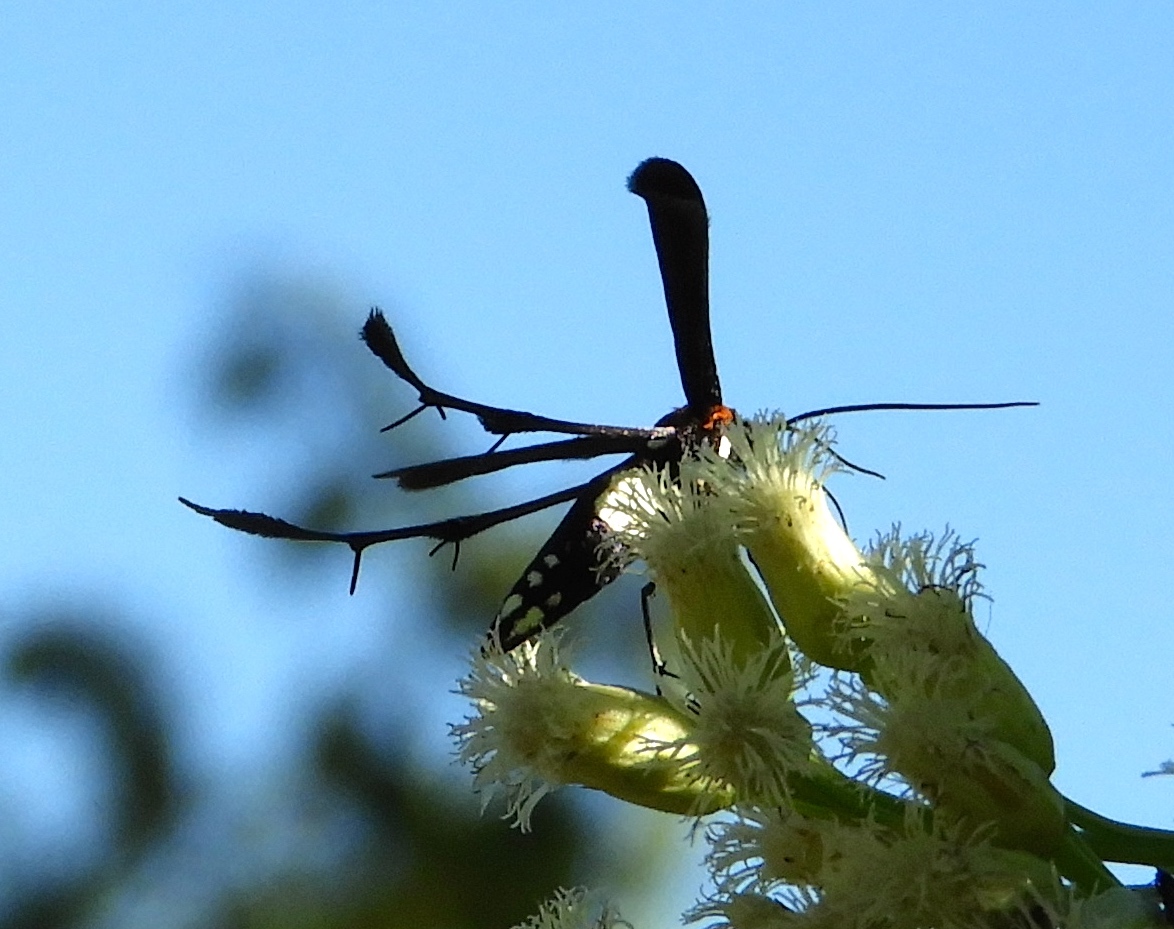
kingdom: Animalia
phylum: Arthropoda
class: Insecta
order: Lepidoptera
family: Pterophoridae
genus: Hellinsia
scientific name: Hellinsia chamelai
